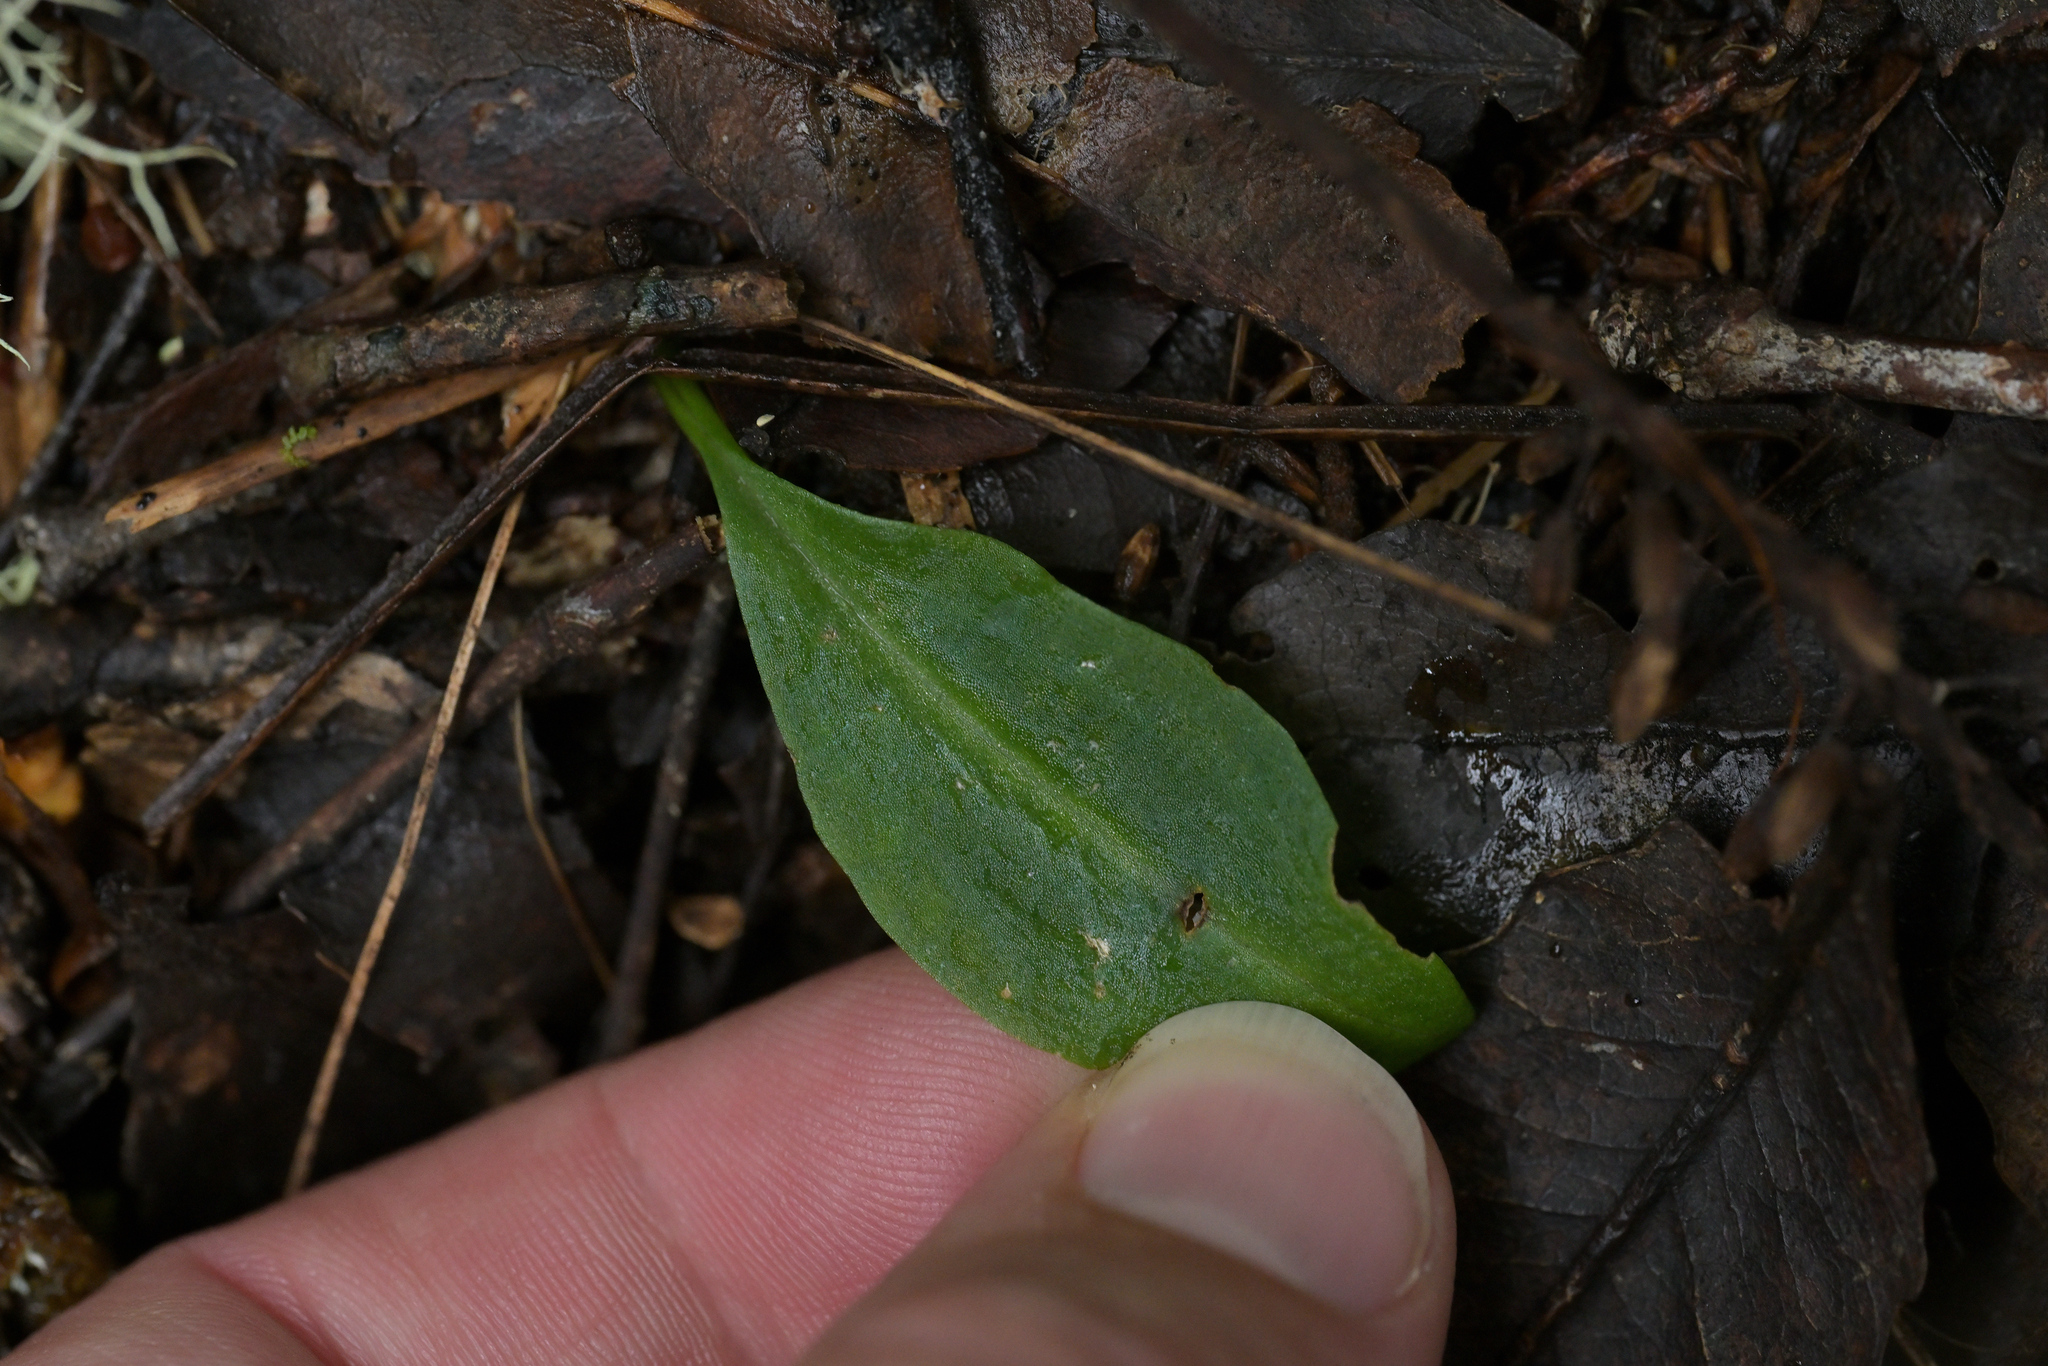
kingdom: Plantae
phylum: Tracheophyta
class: Liliopsida
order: Asparagales
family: Orchidaceae
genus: Adenochilus
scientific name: Adenochilus gracilis
